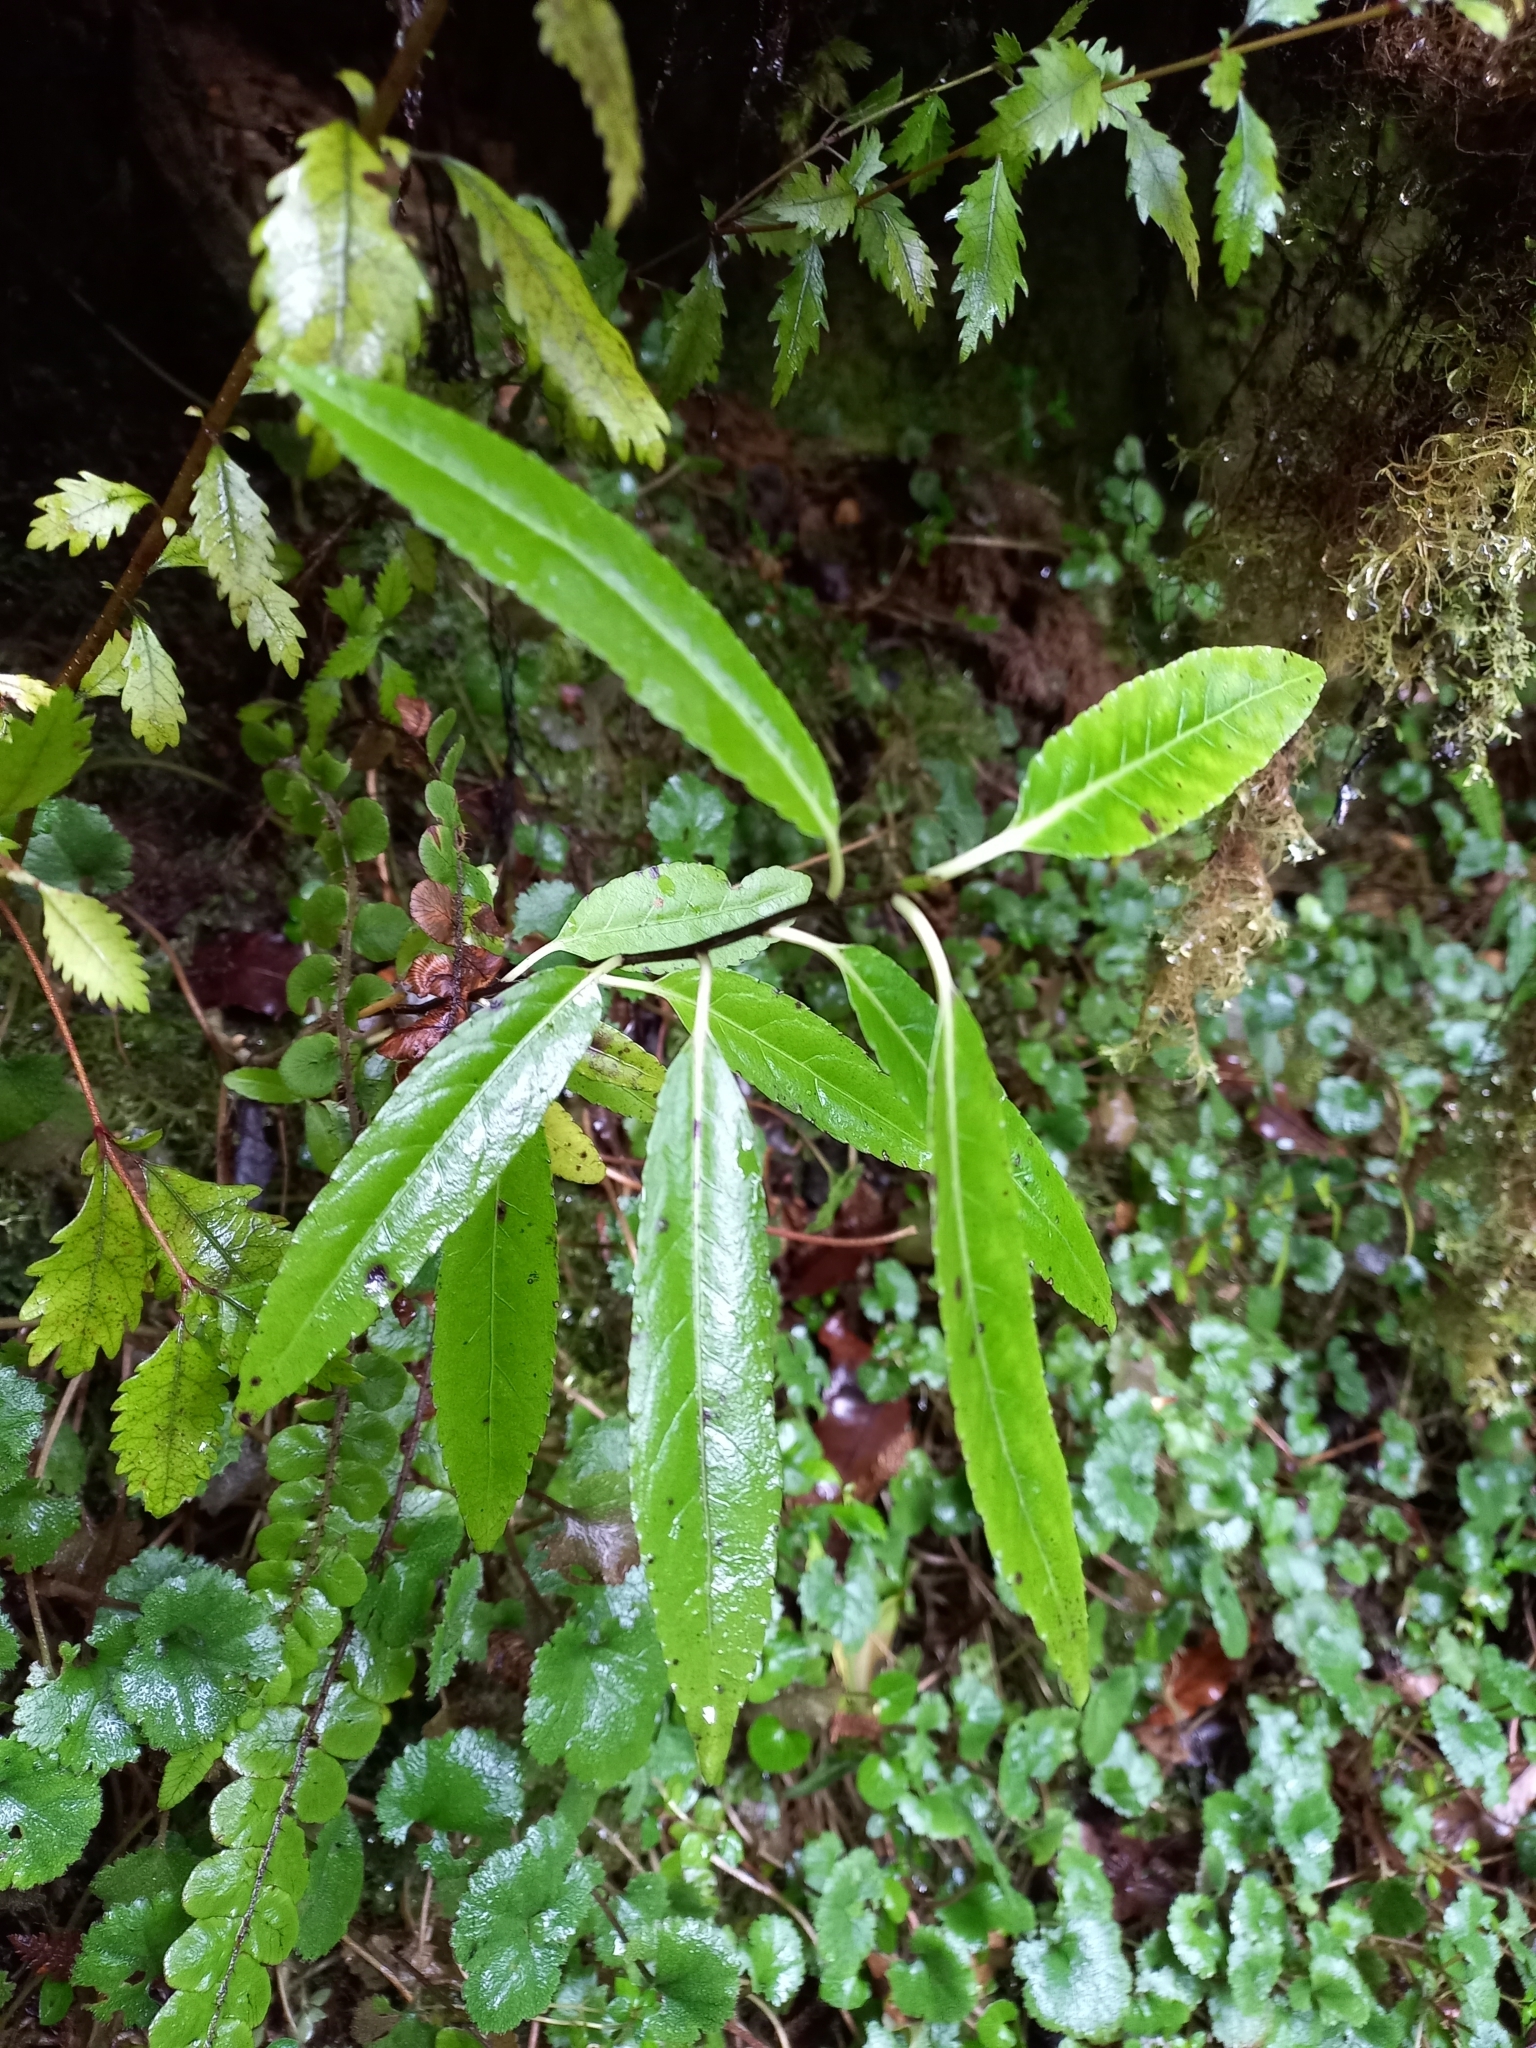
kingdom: Plantae
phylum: Tracheophyta
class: Magnoliopsida
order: Malpighiales
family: Violaceae
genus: Melicytus
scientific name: Melicytus lanceolatus
